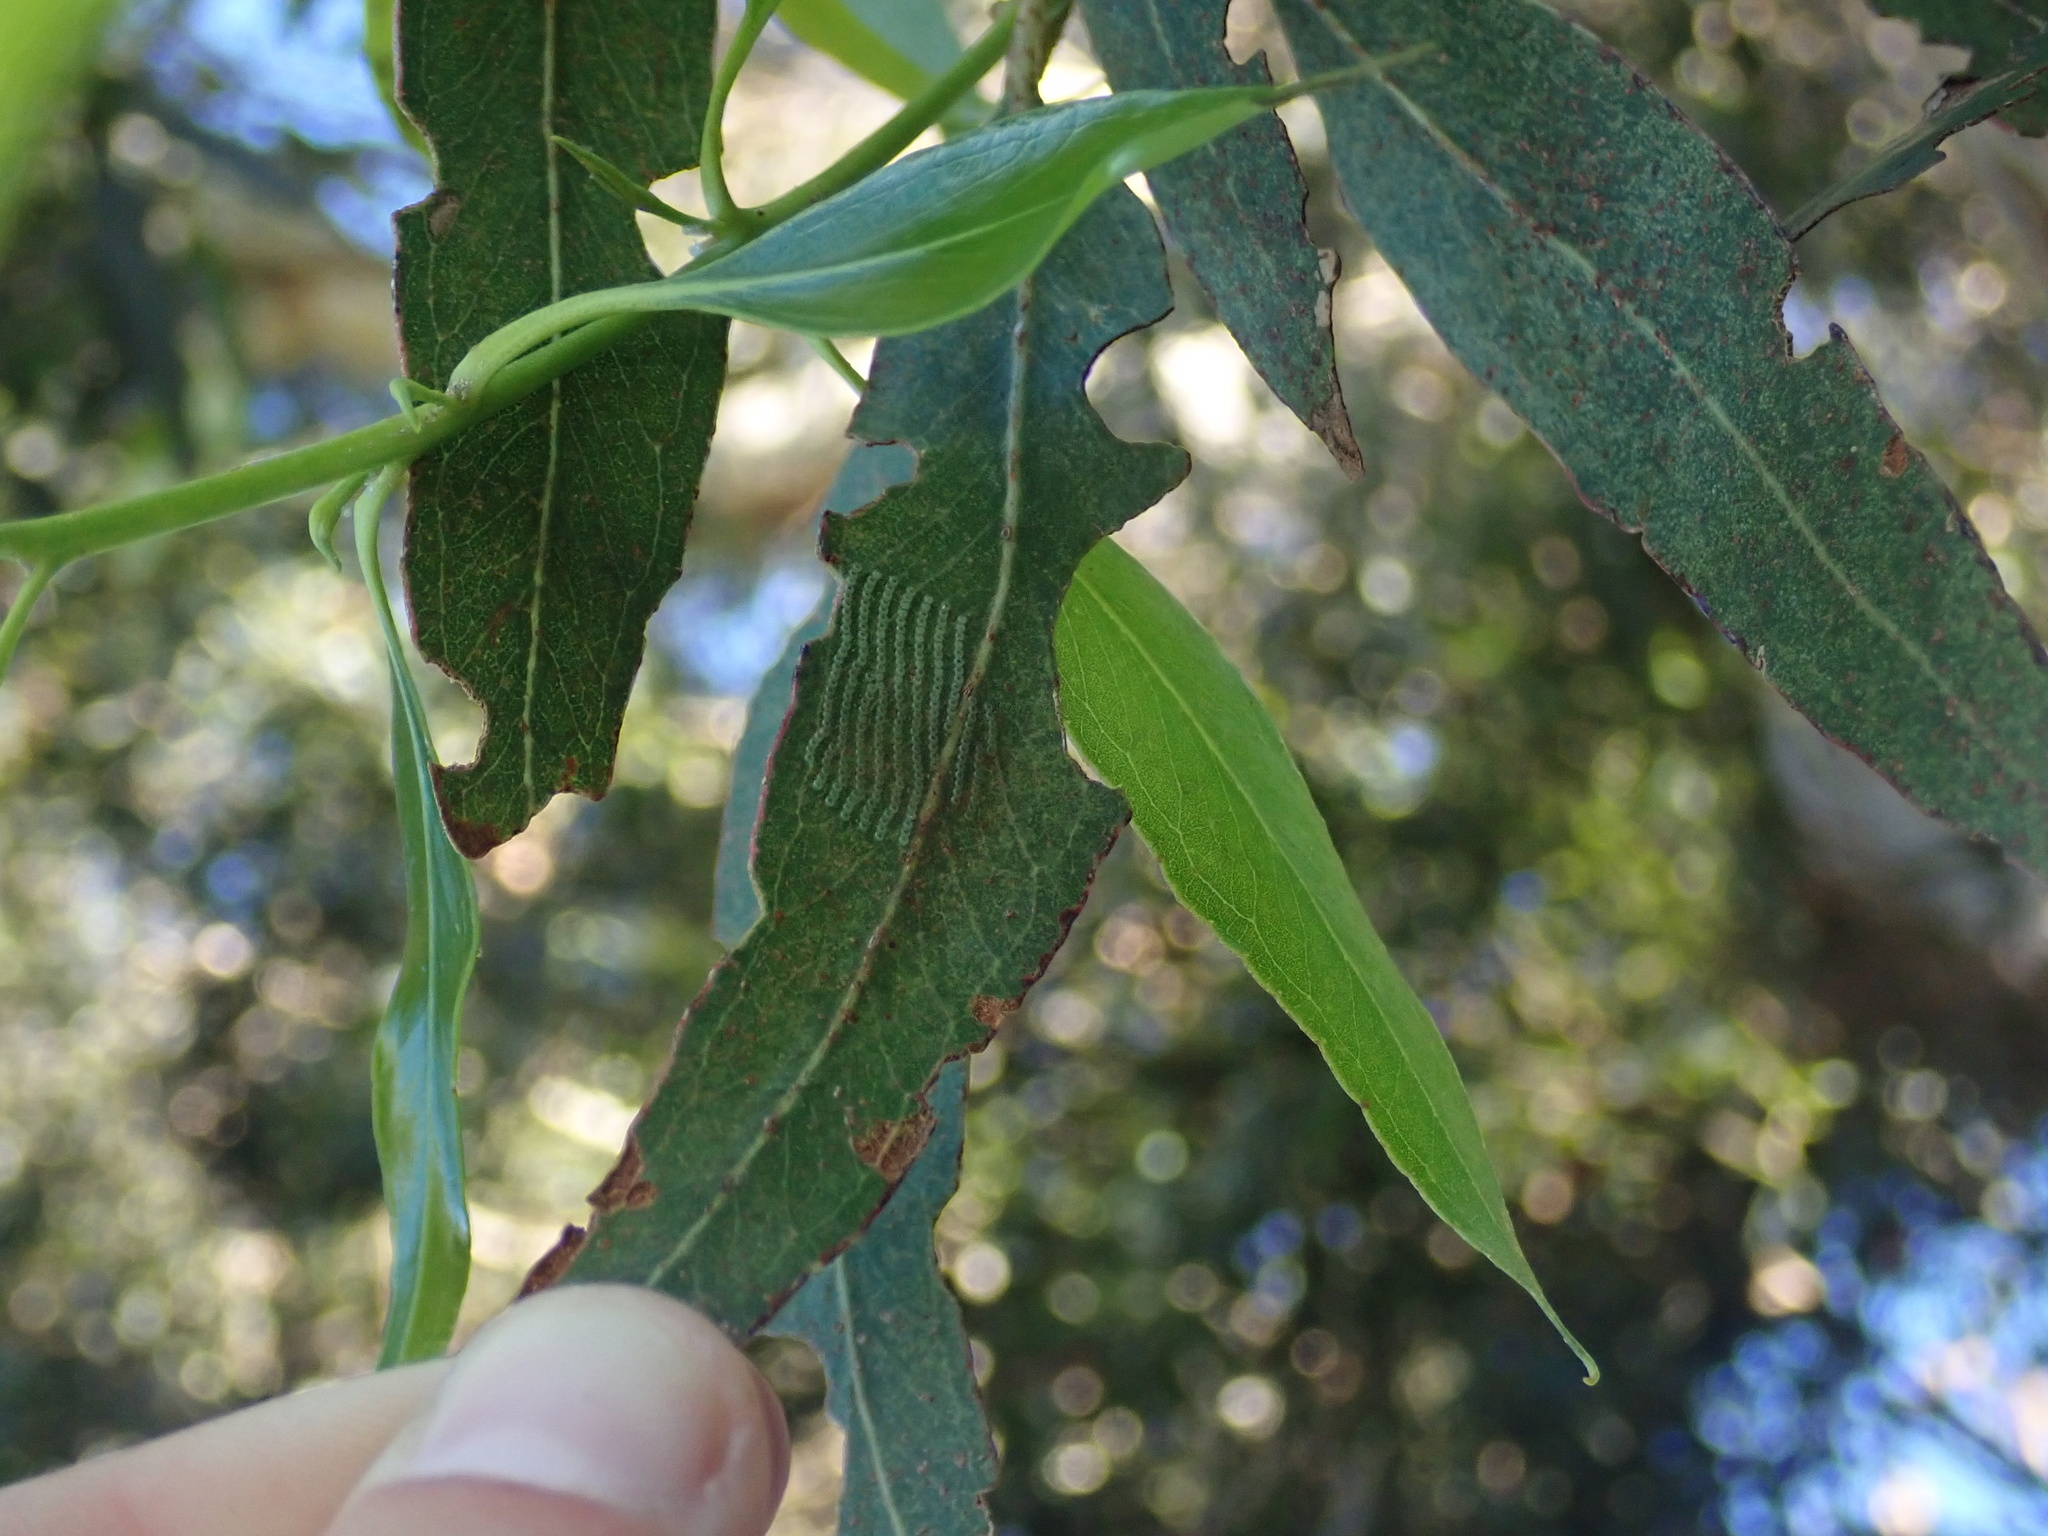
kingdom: Animalia
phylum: Arthropoda
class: Insecta
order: Lepidoptera
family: Nolidae
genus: Uraba
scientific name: Uraba lugens
